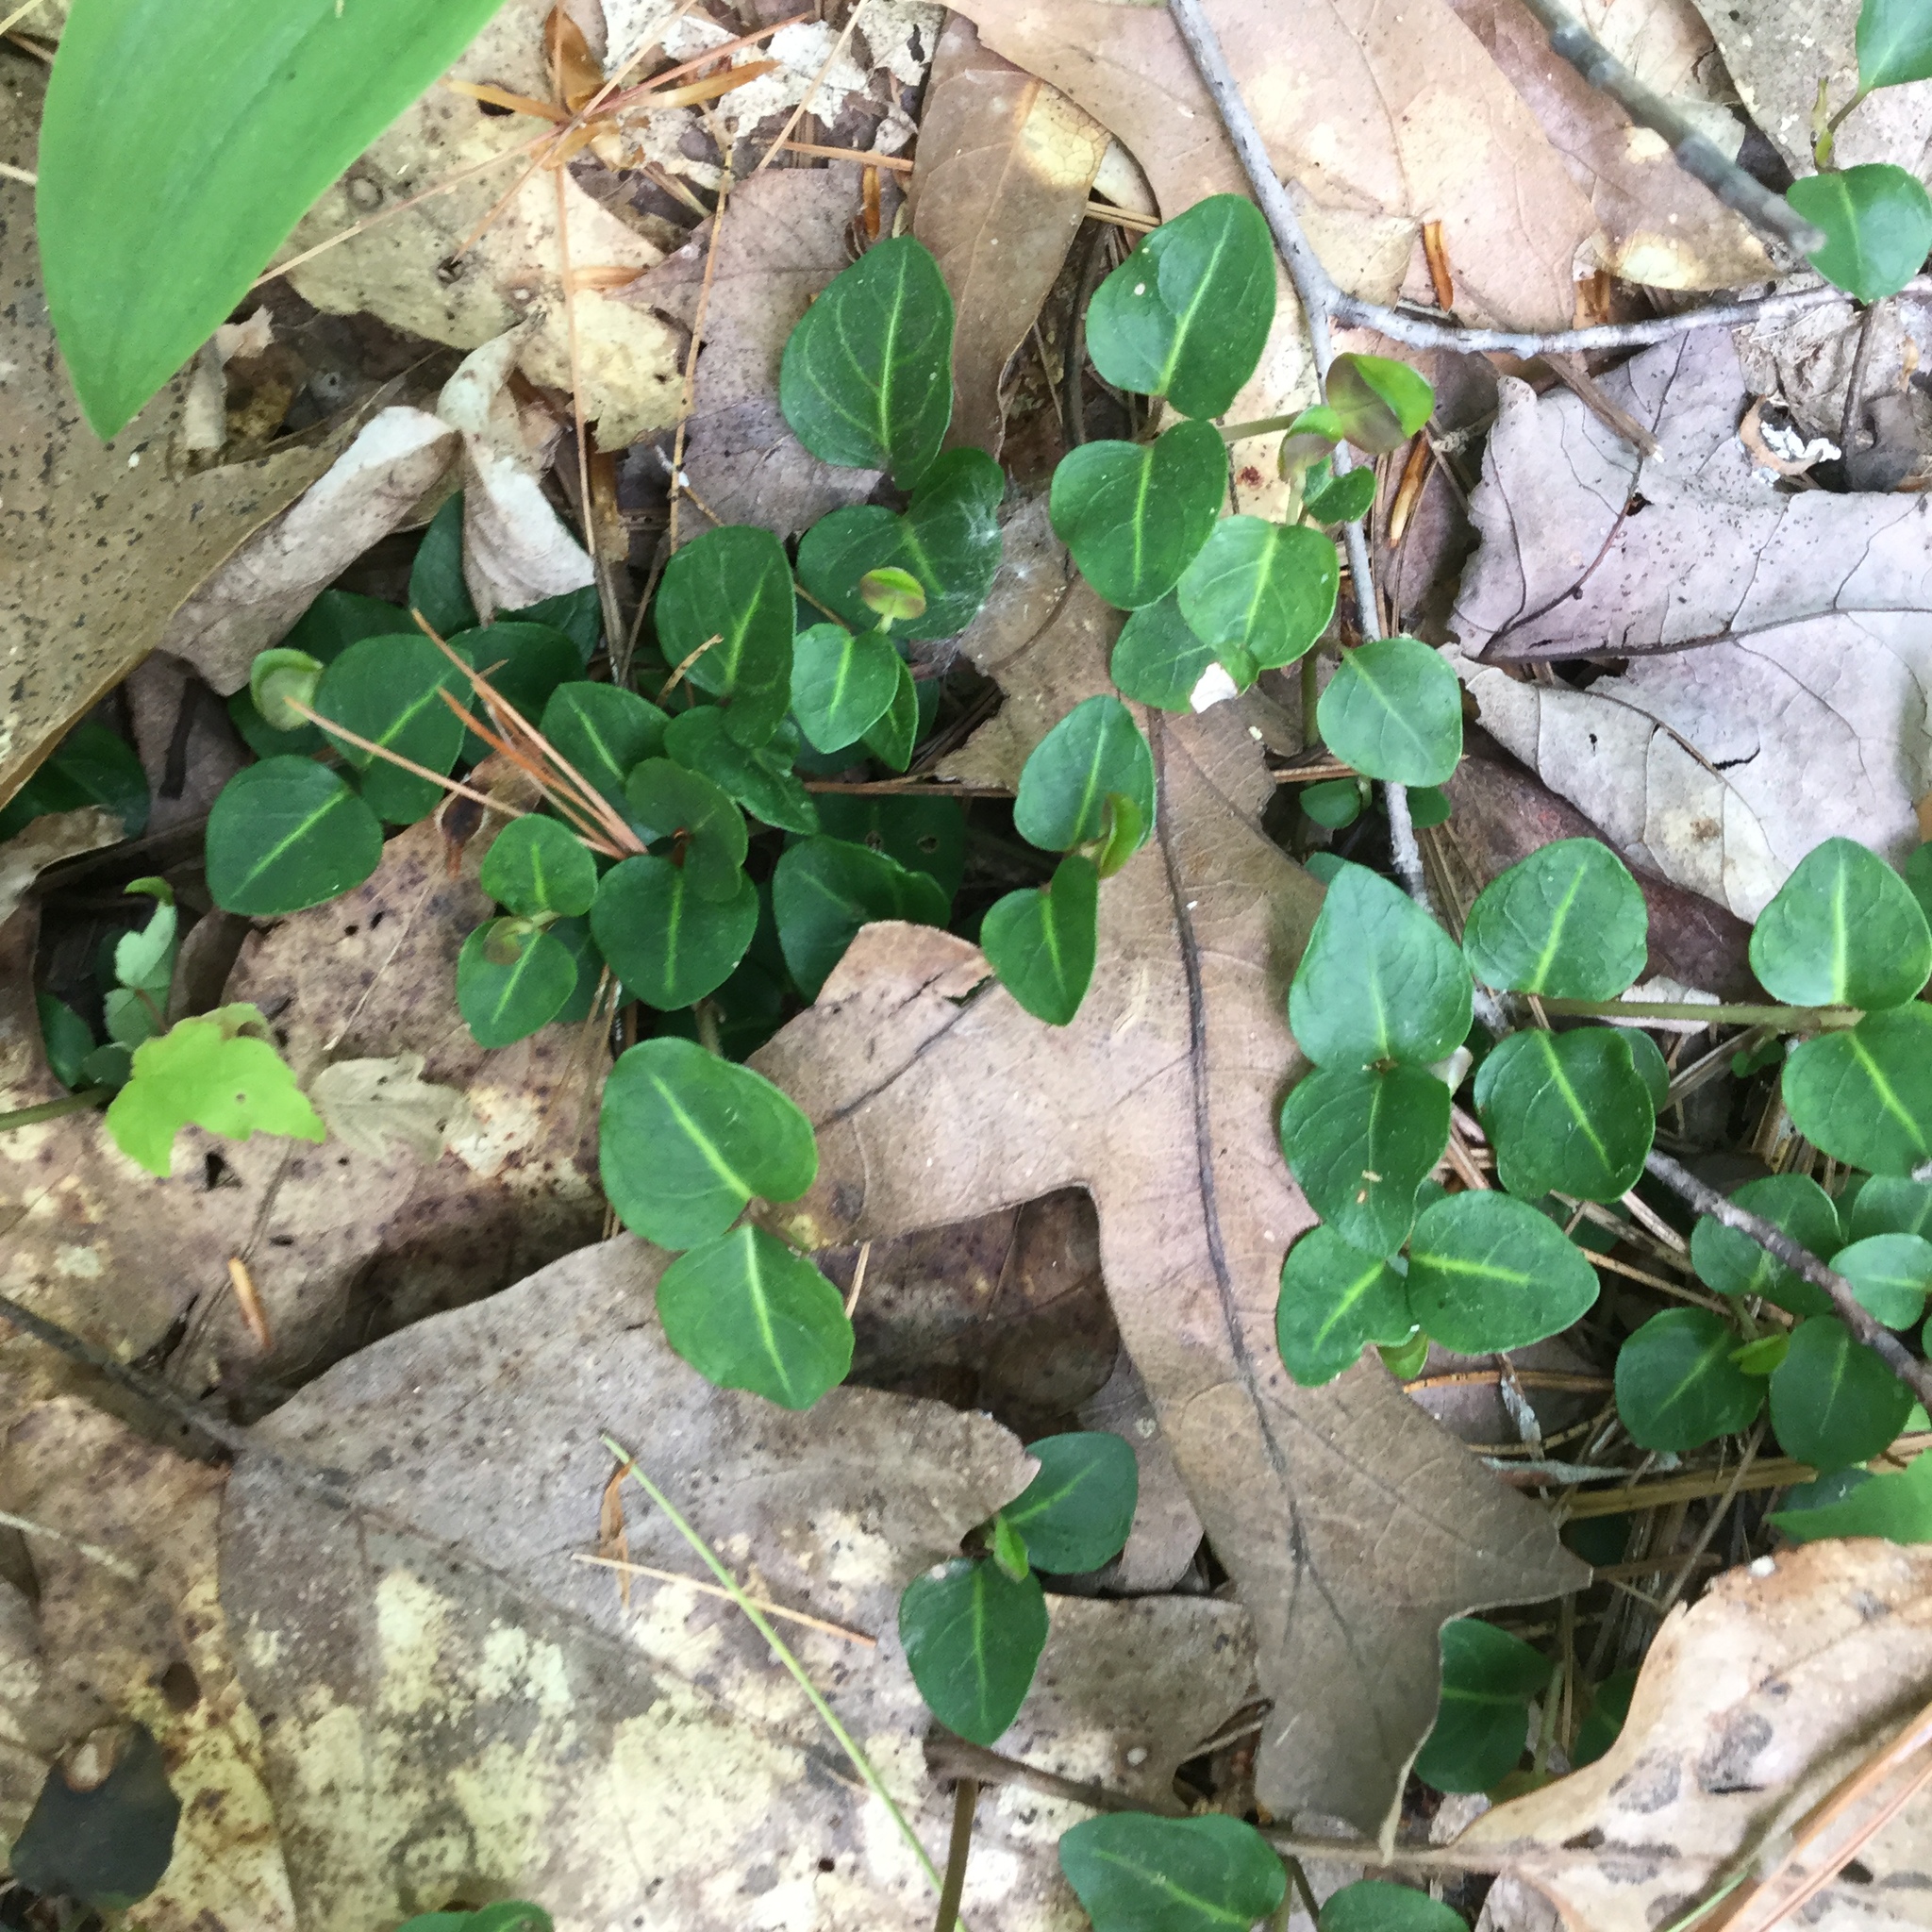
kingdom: Plantae
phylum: Tracheophyta
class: Magnoliopsida
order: Gentianales
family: Rubiaceae
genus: Mitchella
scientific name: Mitchella repens
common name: Partridge-berry
